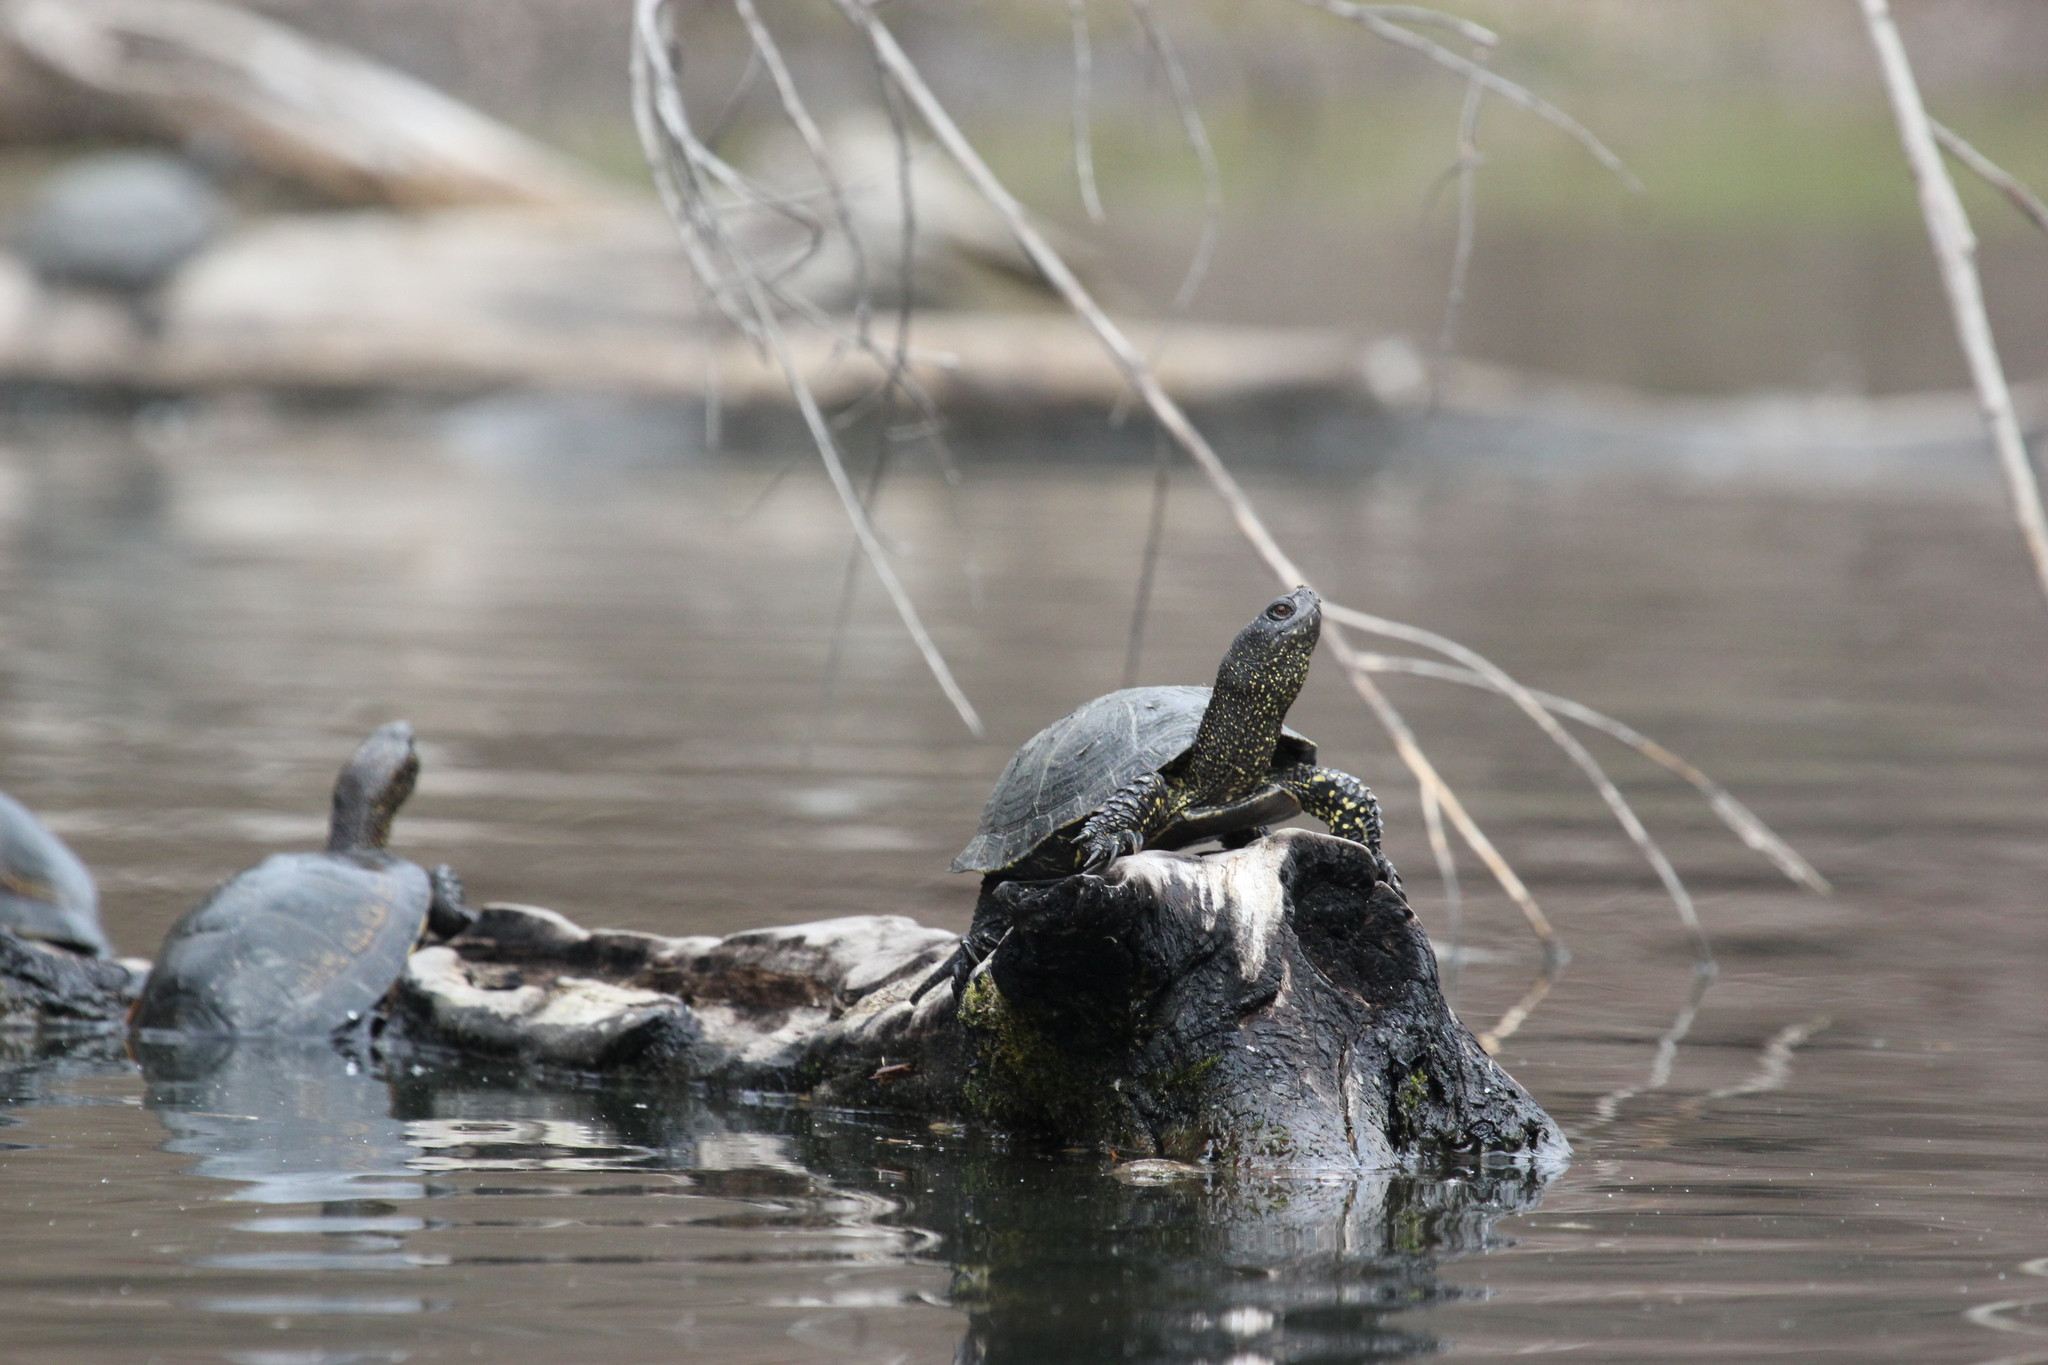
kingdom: Animalia
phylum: Chordata
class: Testudines
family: Emydidae
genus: Emys
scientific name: Emys orbicularis
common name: European pond turtle
